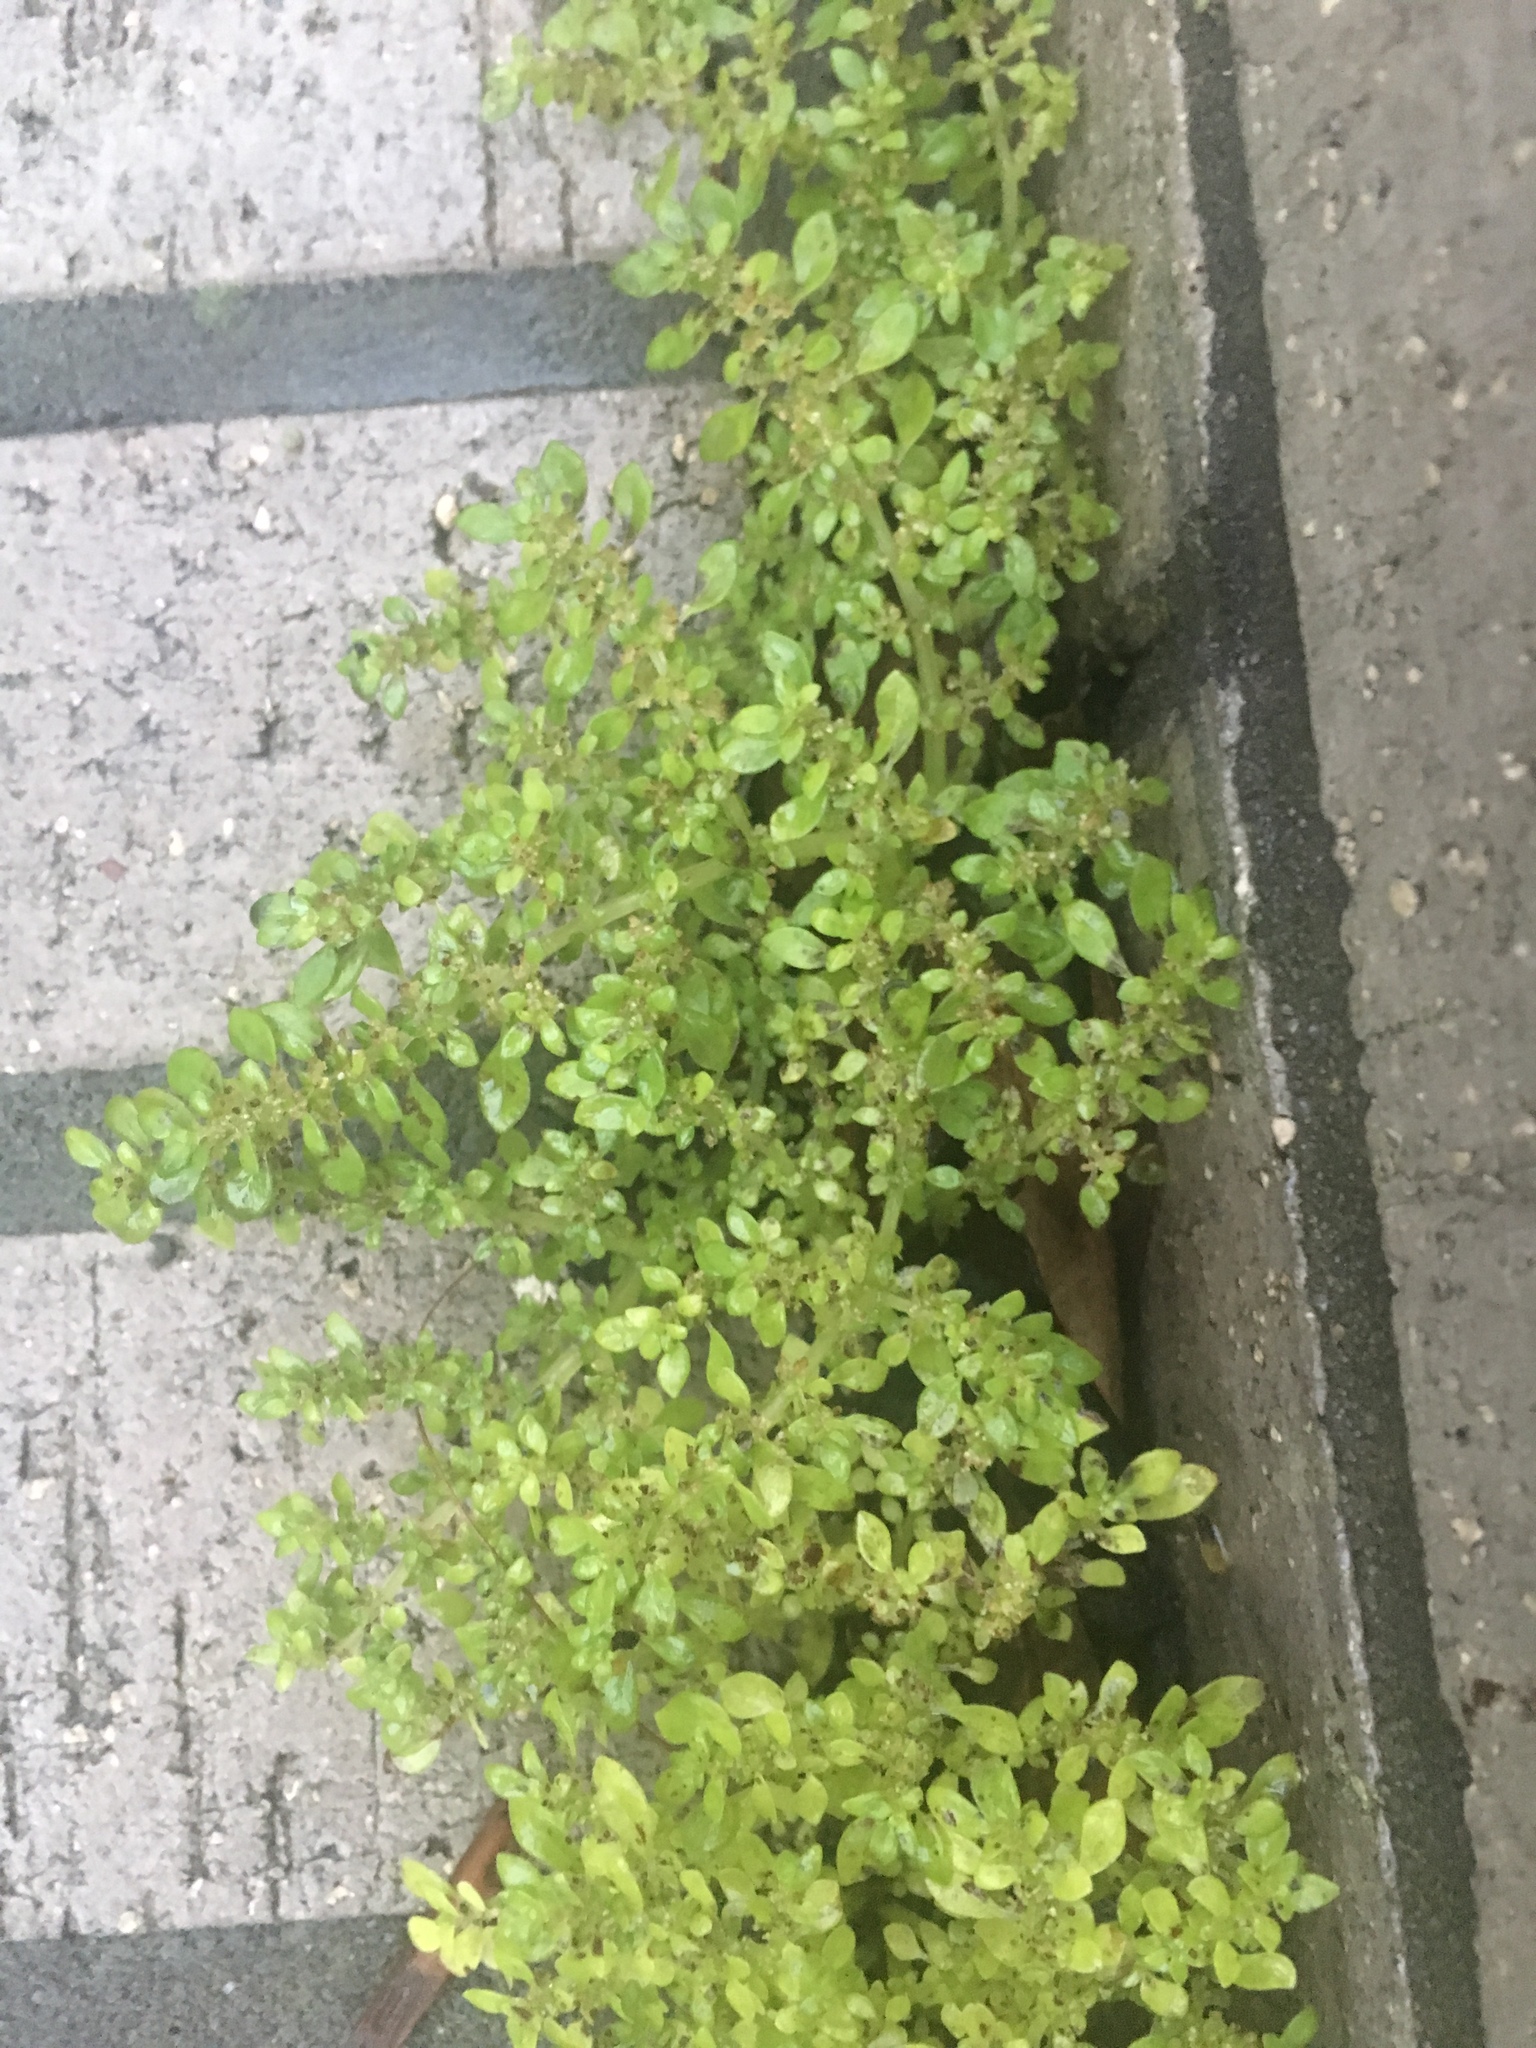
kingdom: Plantae
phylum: Tracheophyta
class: Magnoliopsida
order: Rosales
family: Urticaceae
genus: Pilea
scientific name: Pilea microphylla
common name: Artillery-plant
